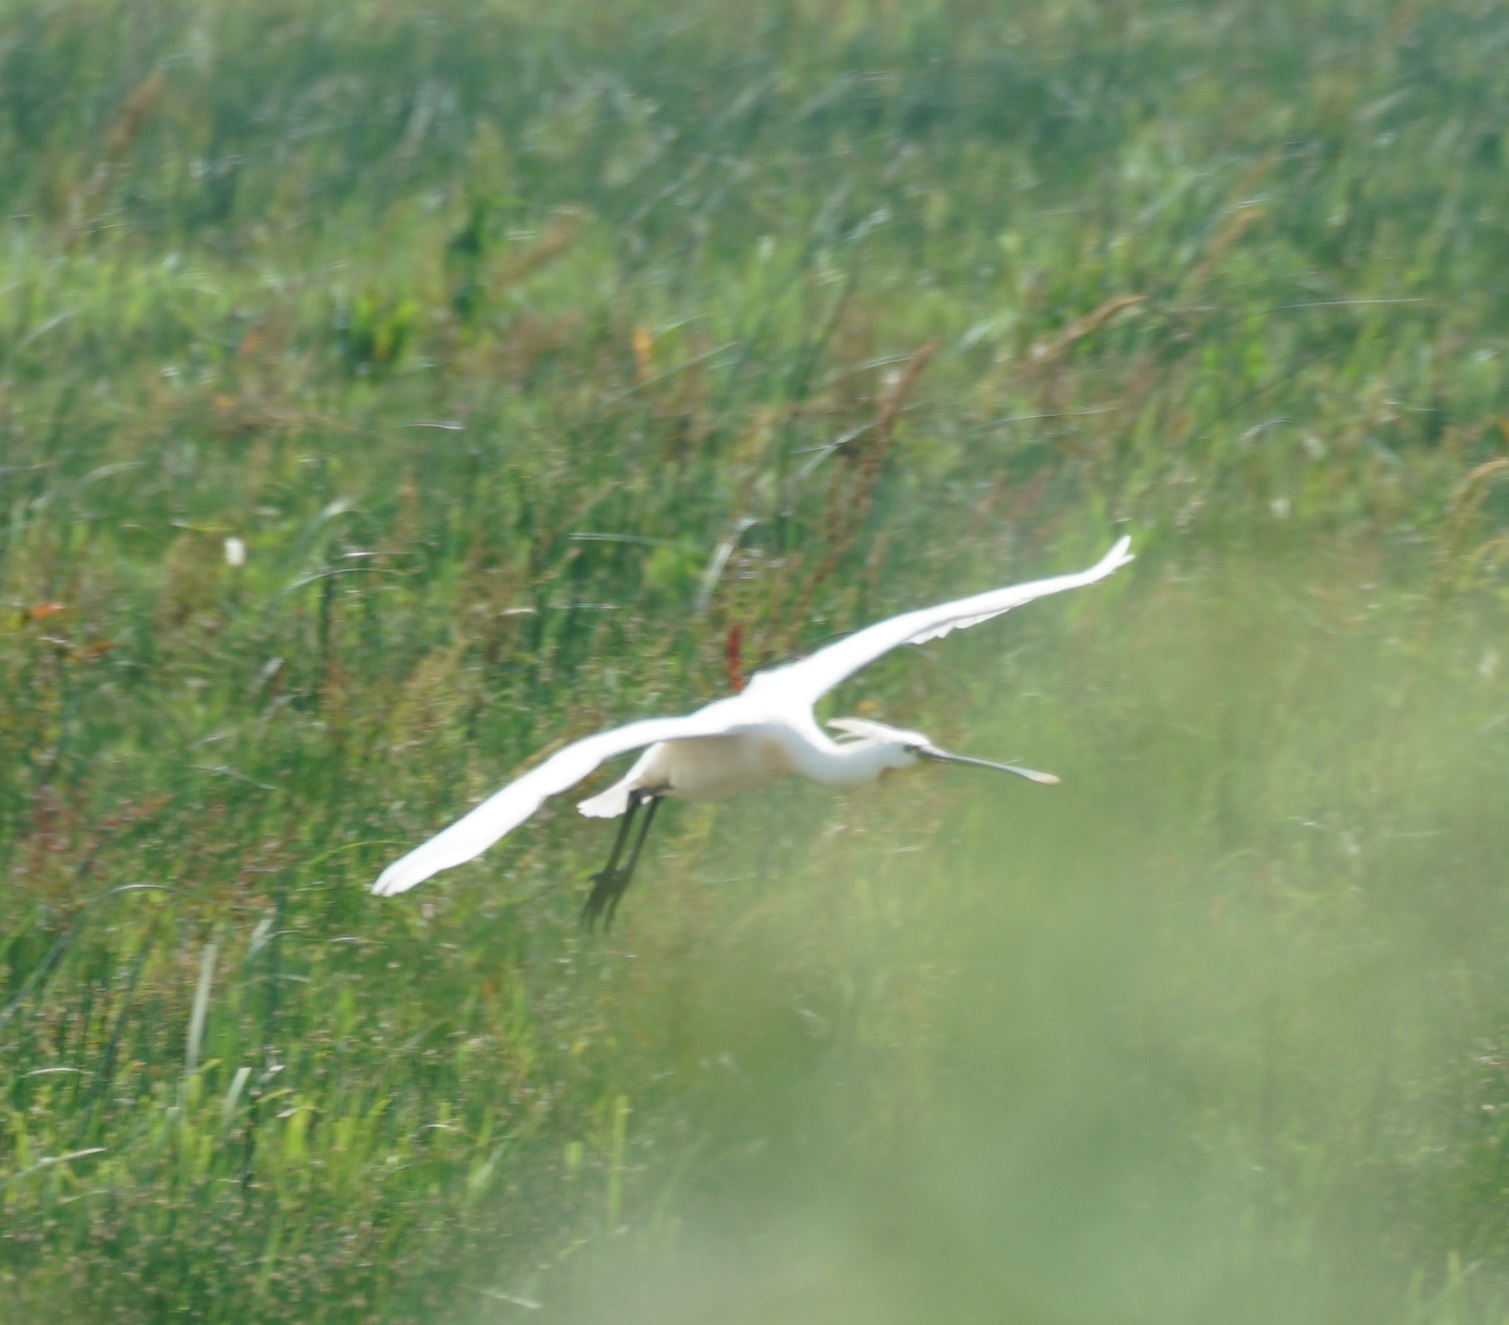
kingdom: Animalia
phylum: Chordata
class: Aves
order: Pelecaniformes
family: Threskiornithidae
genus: Platalea
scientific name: Platalea leucorodia
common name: Eurasian spoonbill
